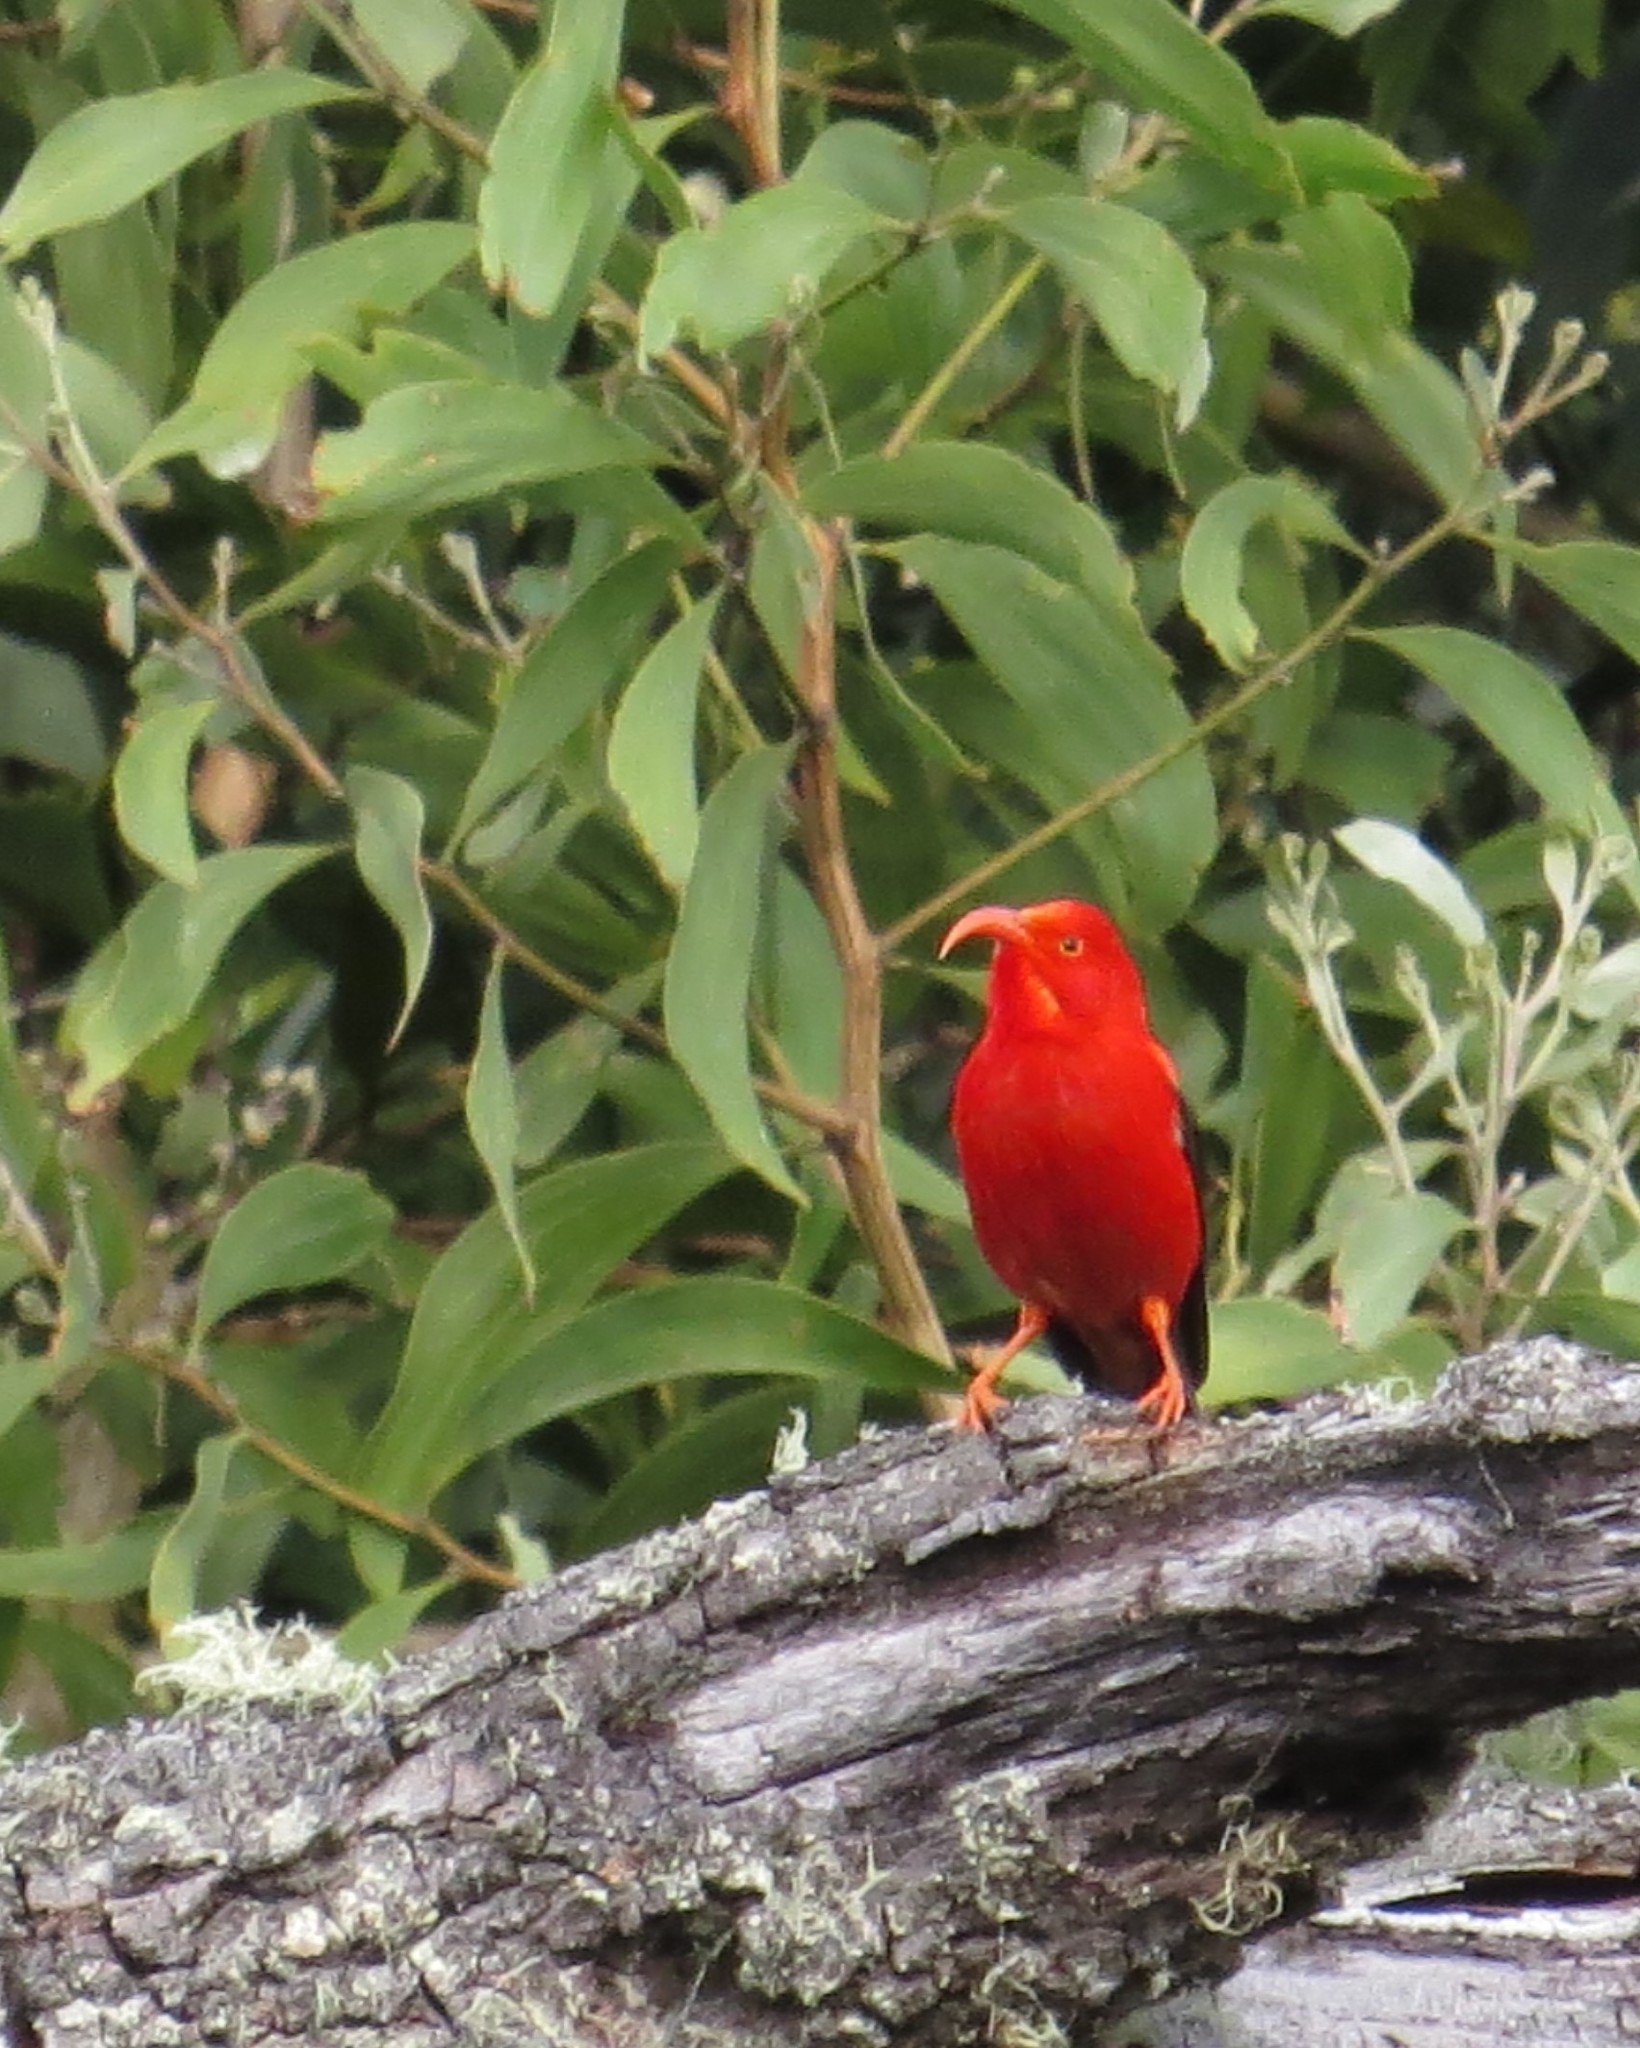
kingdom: Animalia
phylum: Chordata
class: Aves
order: Passeriformes
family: Fringillidae
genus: Vestiaria
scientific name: Vestiaria coccinea
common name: Iiwi
